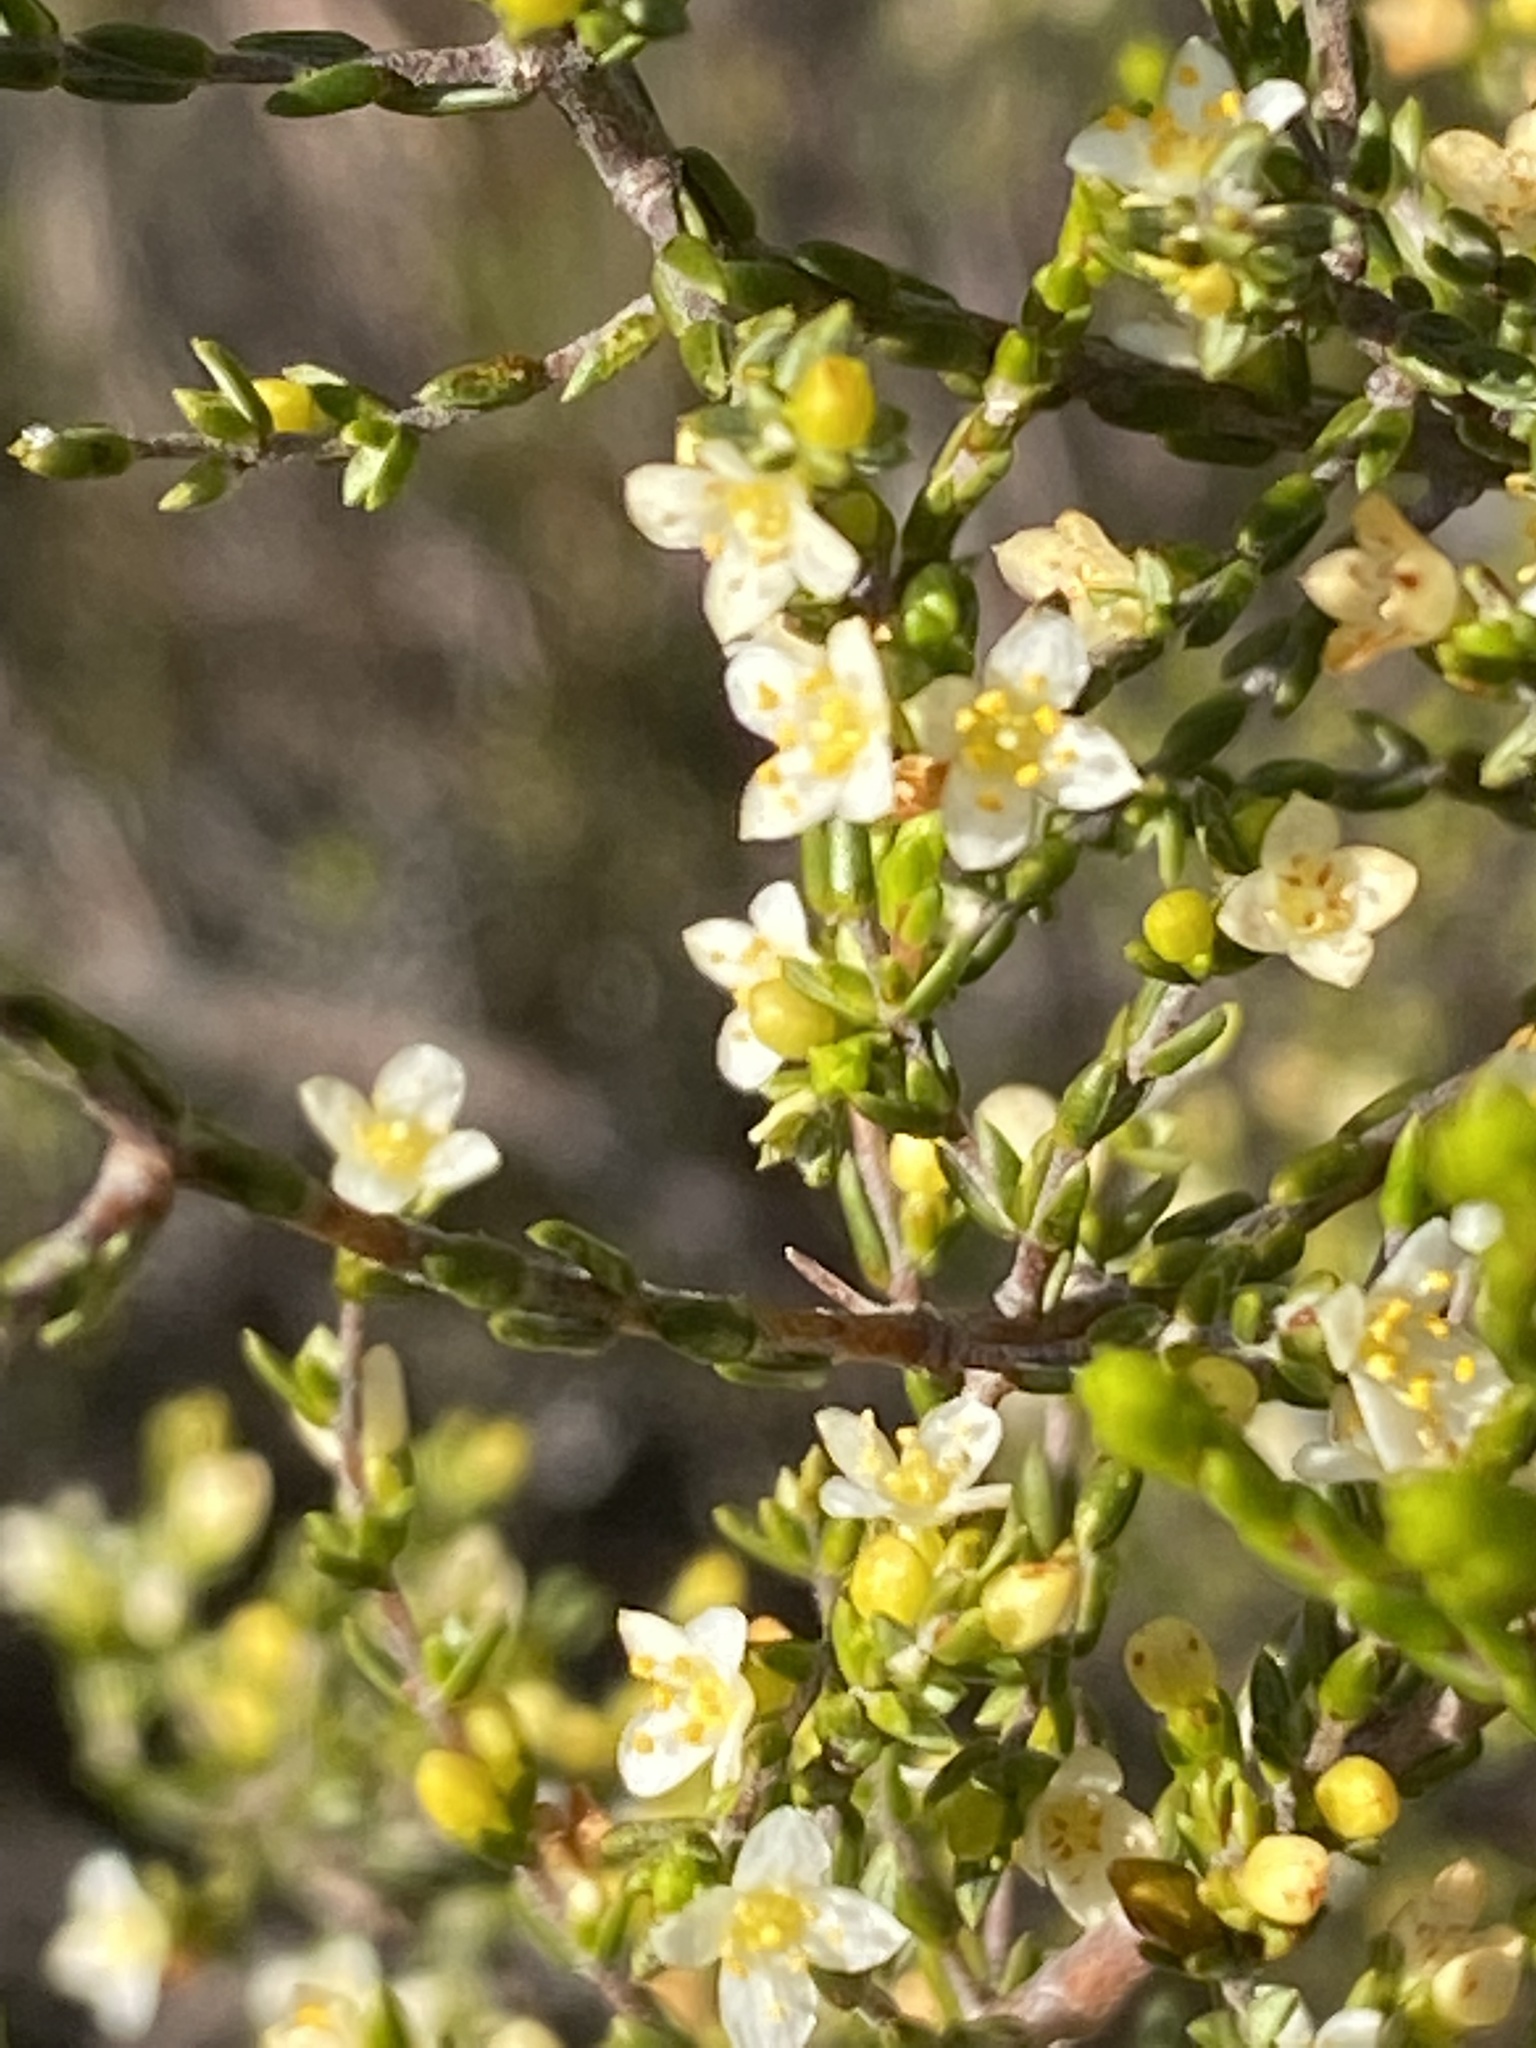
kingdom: Plantae
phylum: Tracheophyta
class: Magnoliopsida
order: Malvales
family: Thymelaeaceae
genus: Lachnaea
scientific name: Lachnaea axillaris
